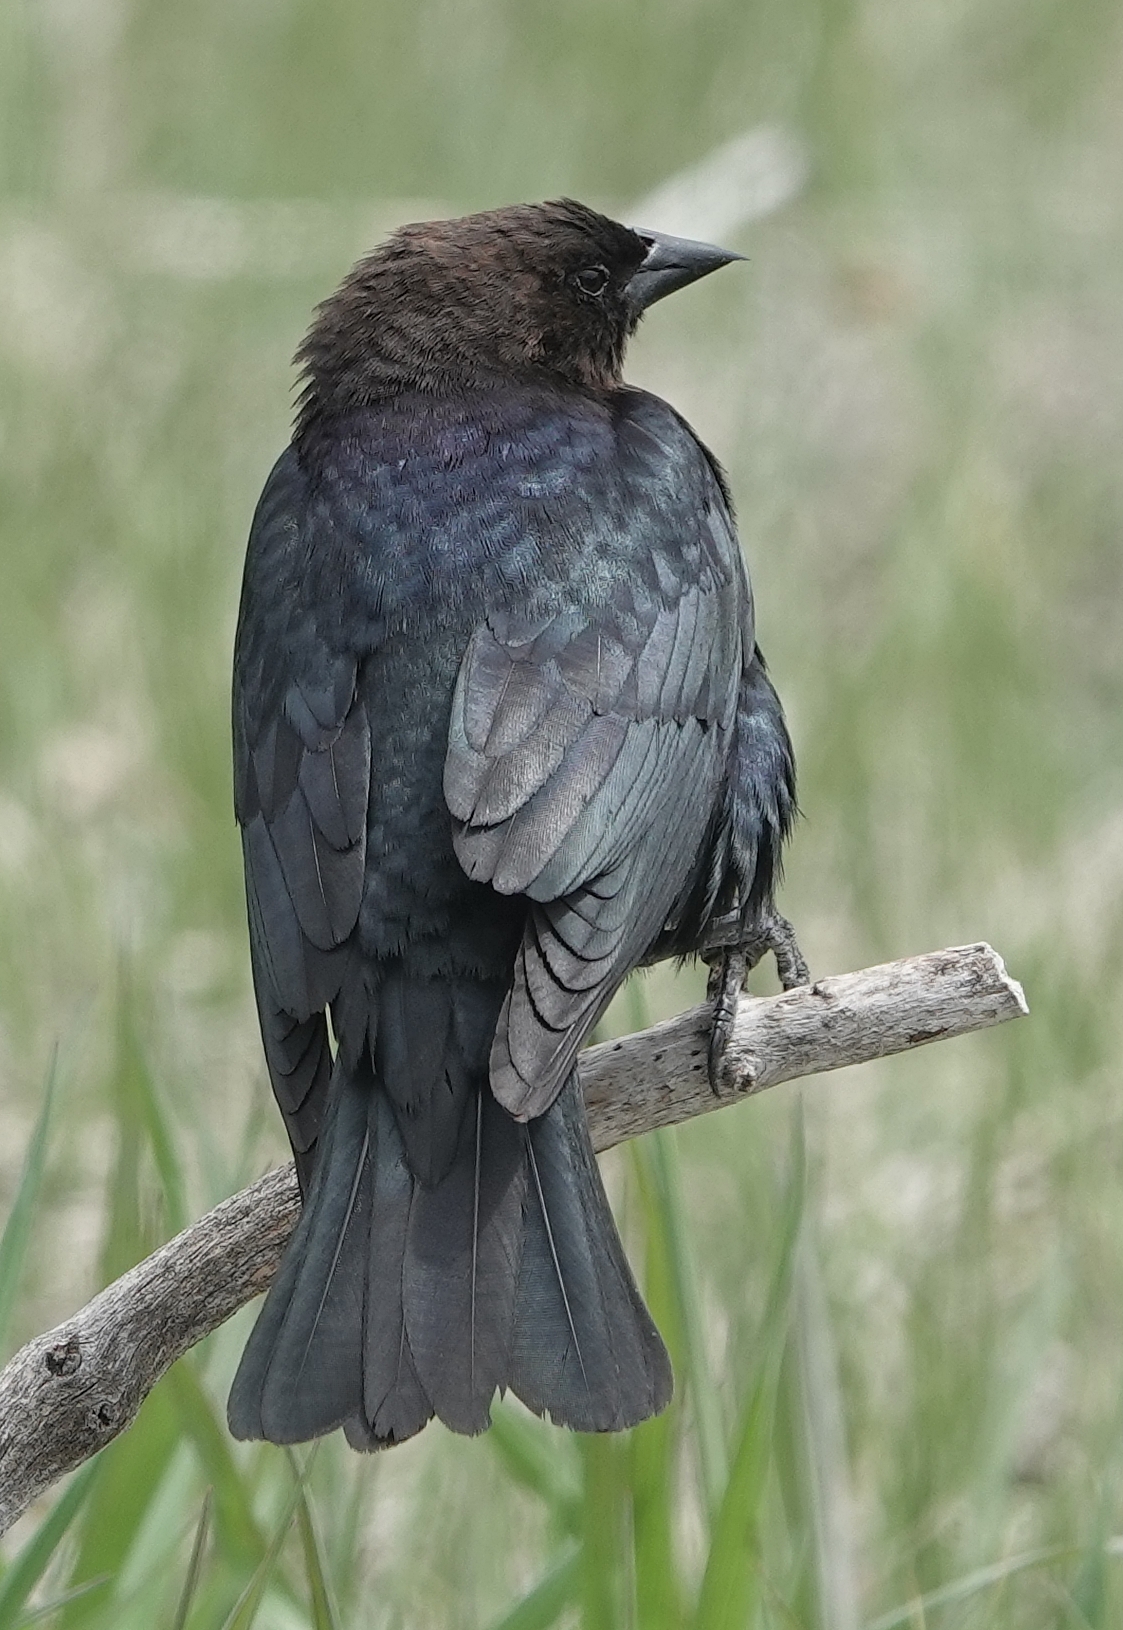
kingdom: Animalia
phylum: Chordata
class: Aves
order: Passeriformes
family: Icteridae
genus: Molothrus
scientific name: Molothrus ater
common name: Brown-headed cowbird
